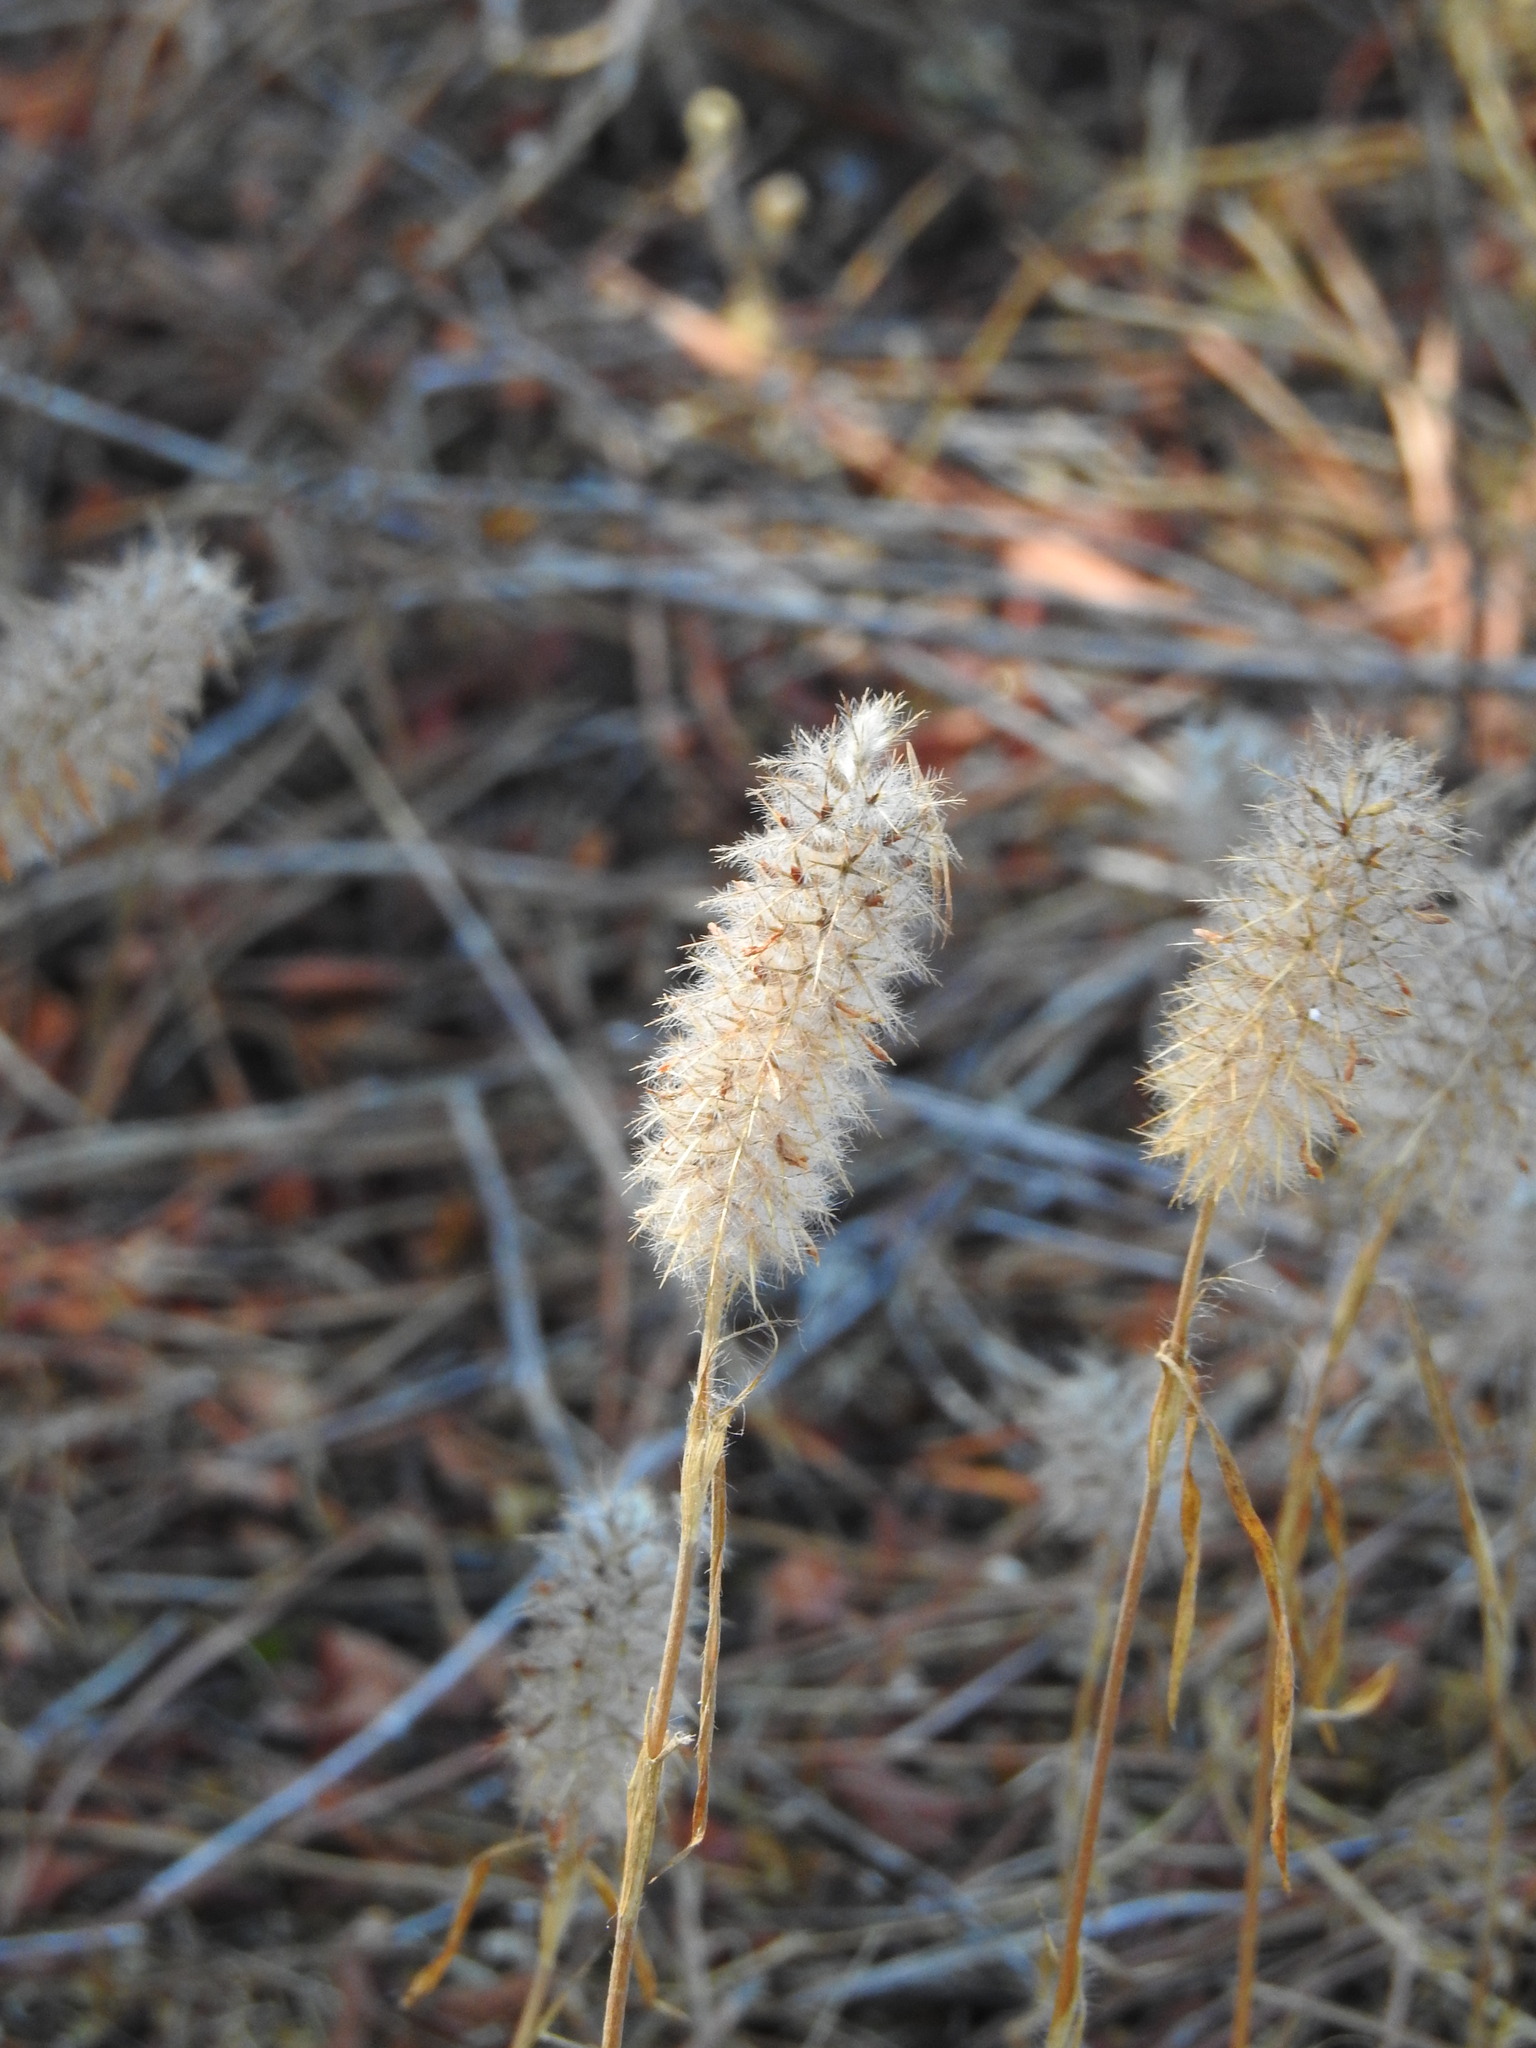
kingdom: Plantae
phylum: Tracheophyta
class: Magnoliopsida
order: Fabales
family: Fabaceae
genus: Trifolium
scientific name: Trifolium angustifolium
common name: Narrow clover
